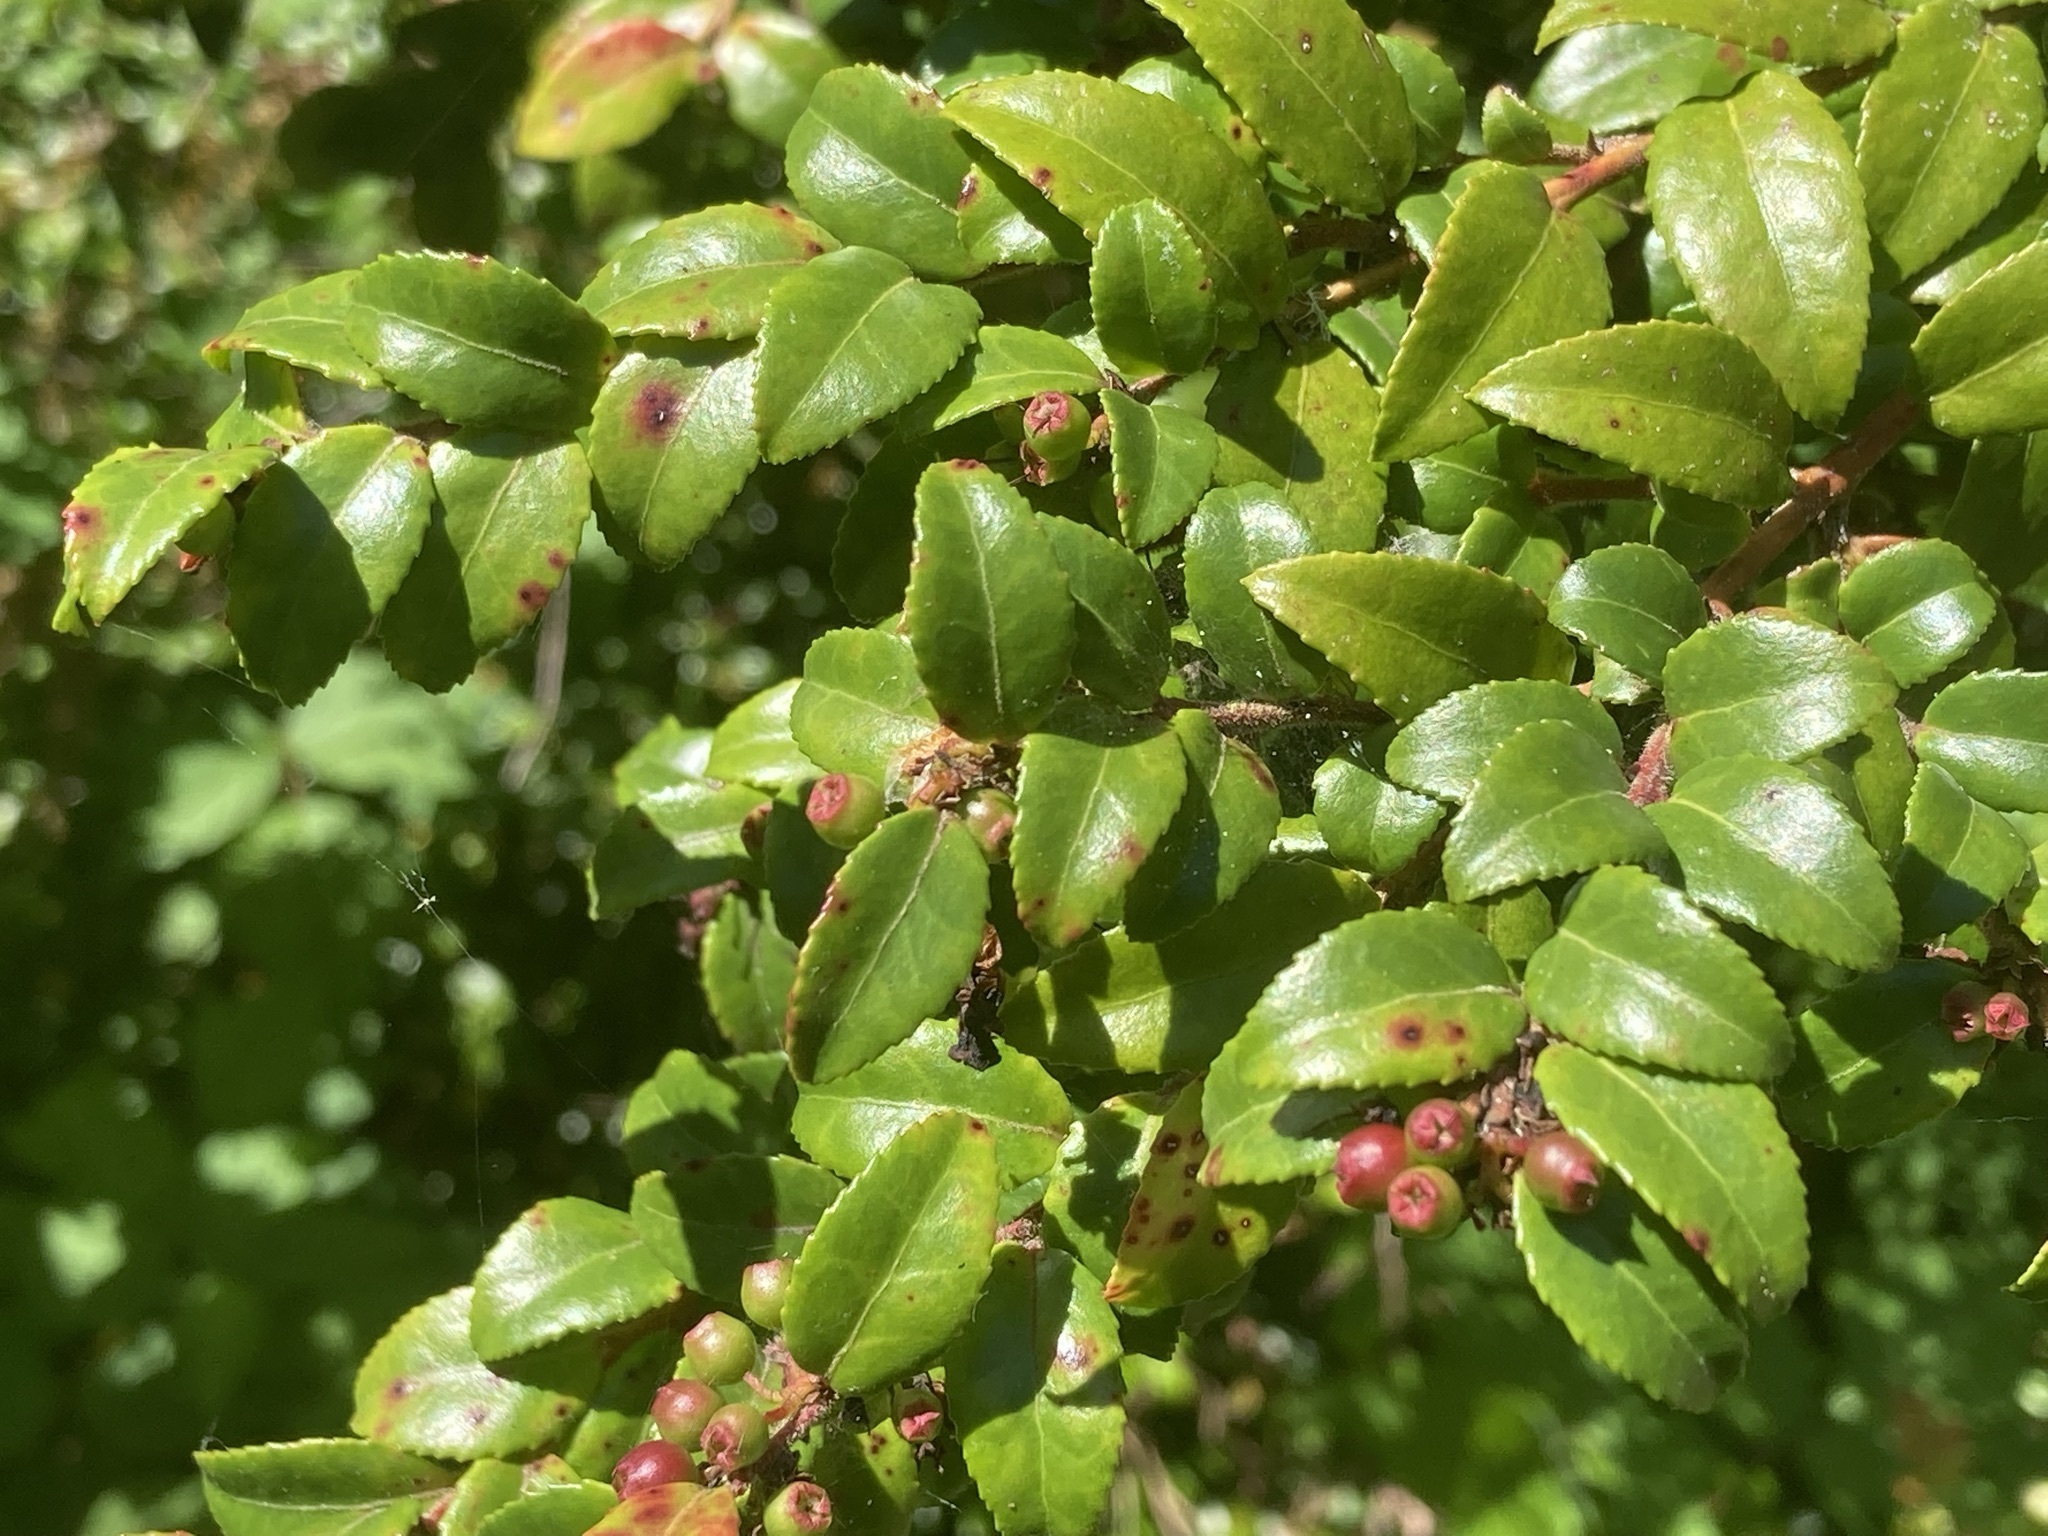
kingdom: Plantae
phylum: Tracheophyta
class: Magnoliopsida
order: Ericales
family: Ericaceae
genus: Vaccinium
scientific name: Vaccinium ovatum
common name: California-huckleberry
